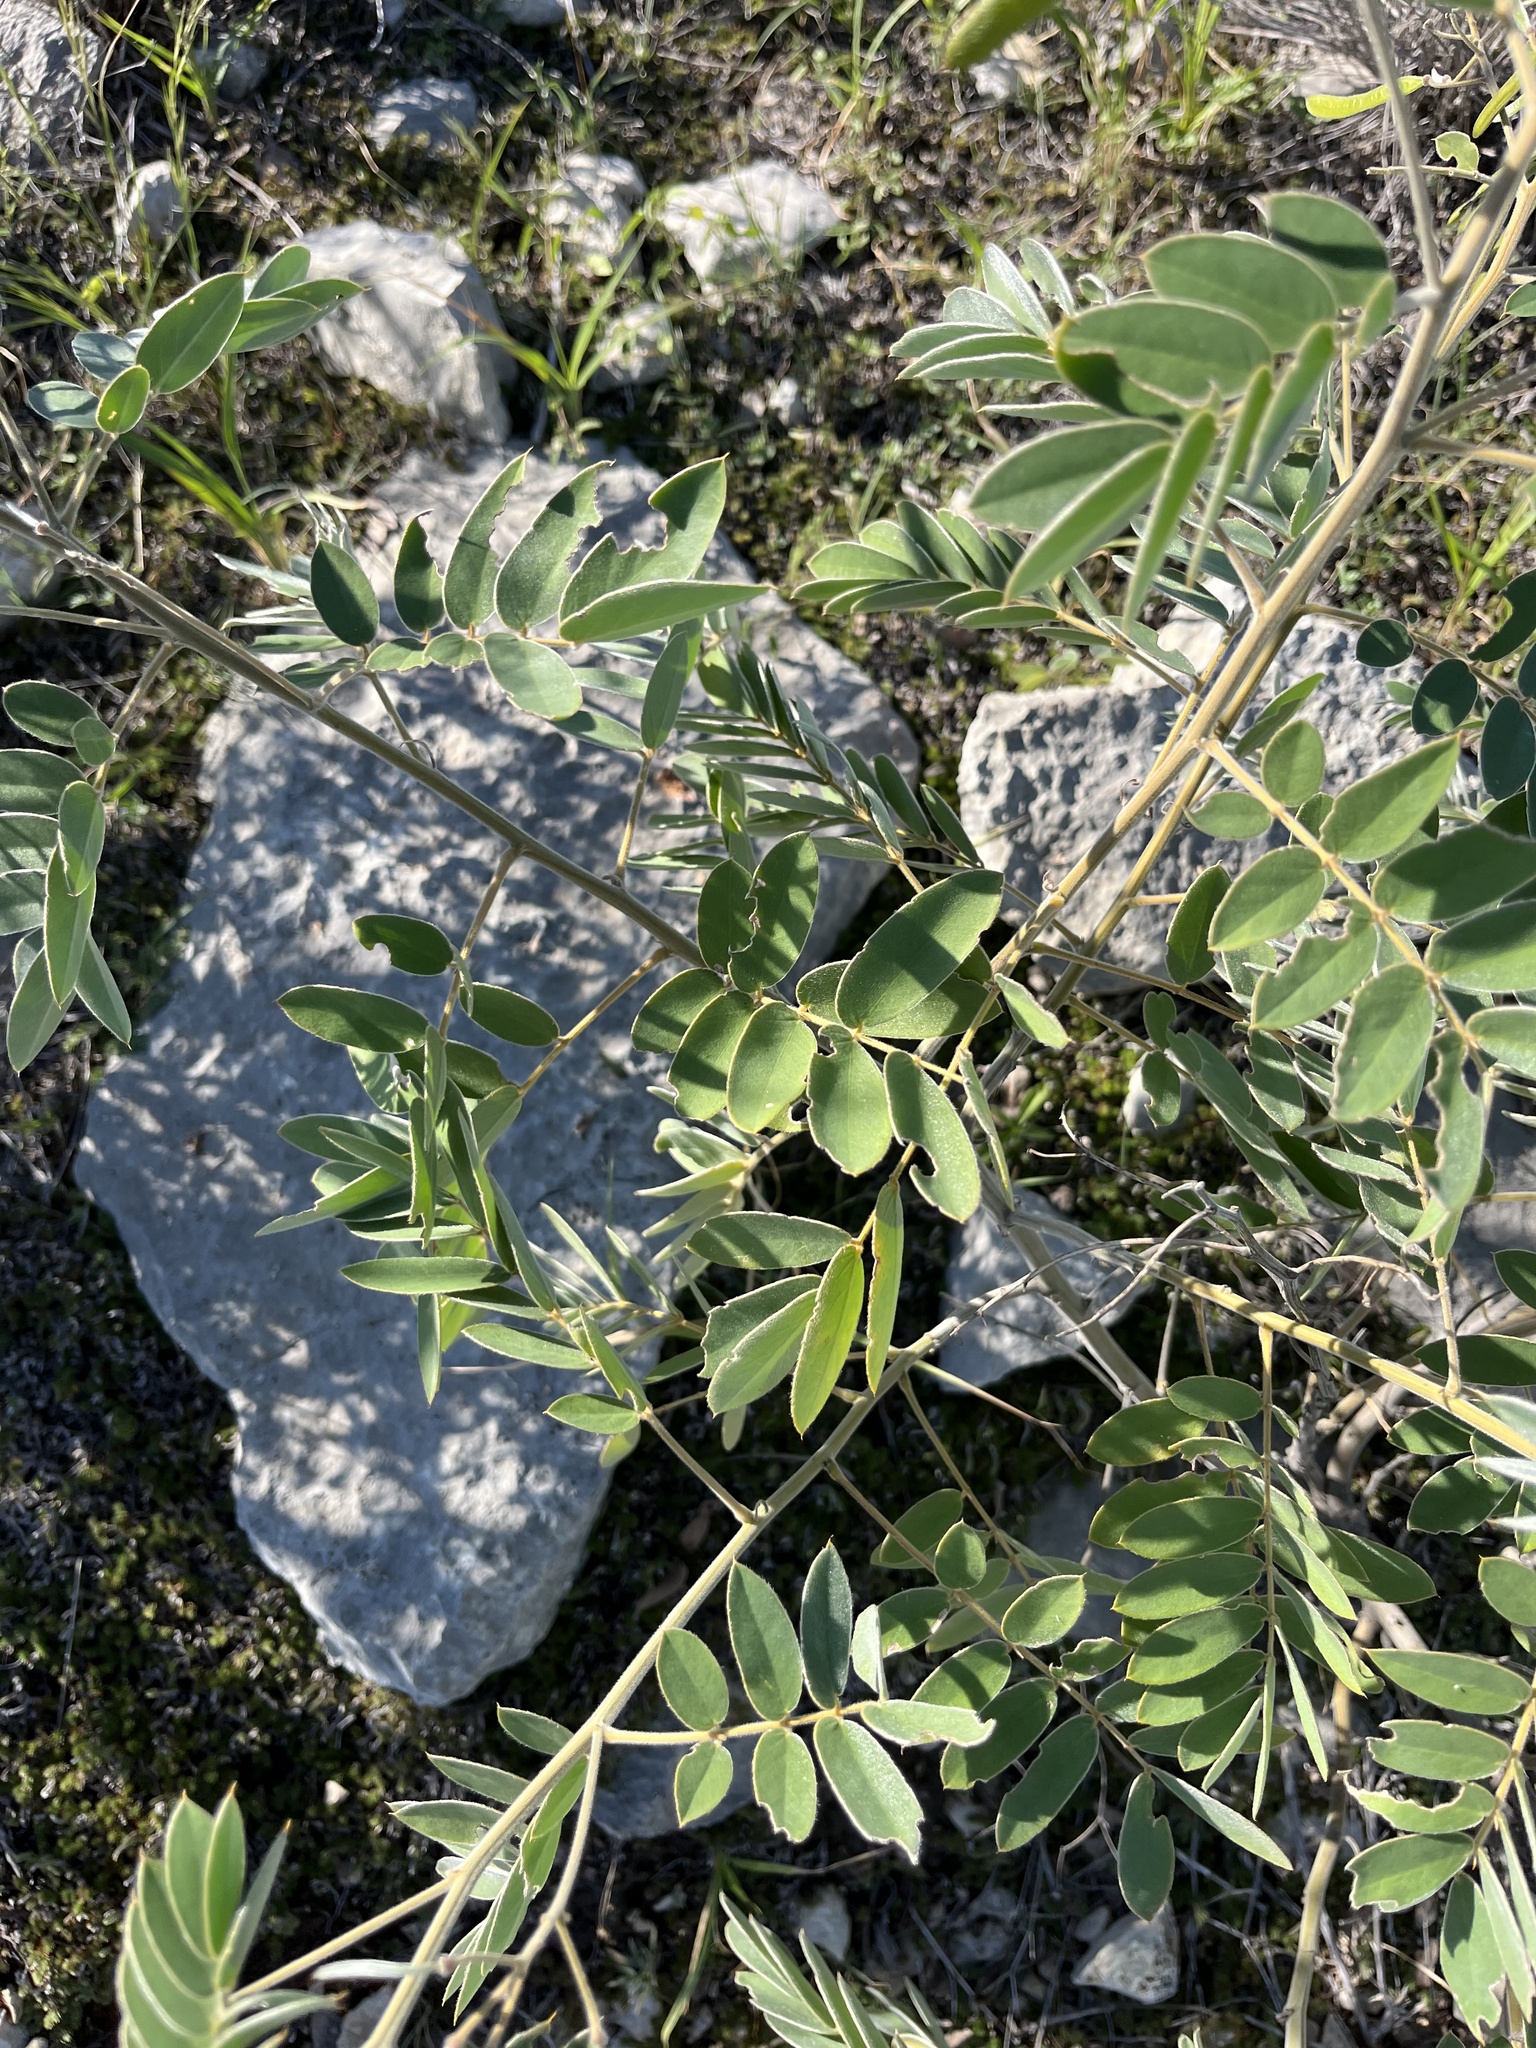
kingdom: Plantae
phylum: Tracheophyta
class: Magnoliopsida
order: Fabales
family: Fabaceae
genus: Senna
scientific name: Senna lindheimeriana
